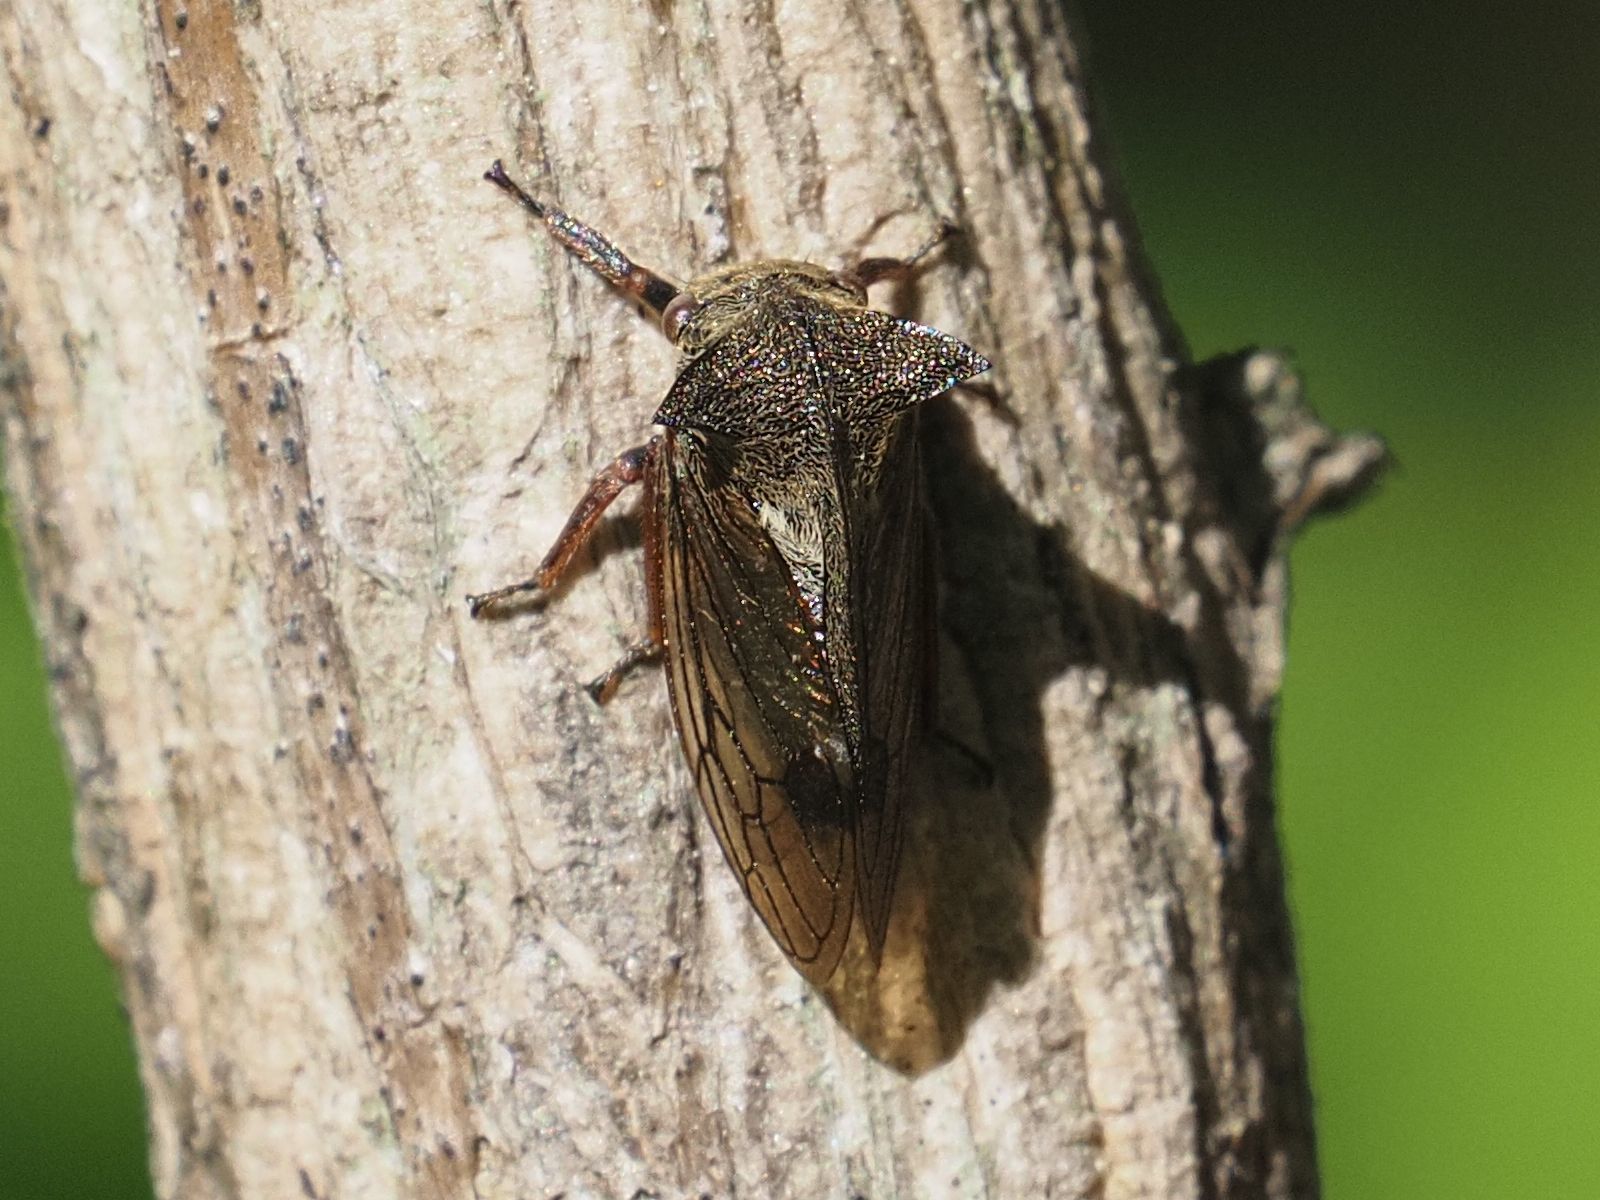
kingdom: Animalia
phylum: Arthropoda
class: Insecta
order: Hemiptera
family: Membracidae
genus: Centrotus
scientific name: Centrotus cornuta
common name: Treehopper
